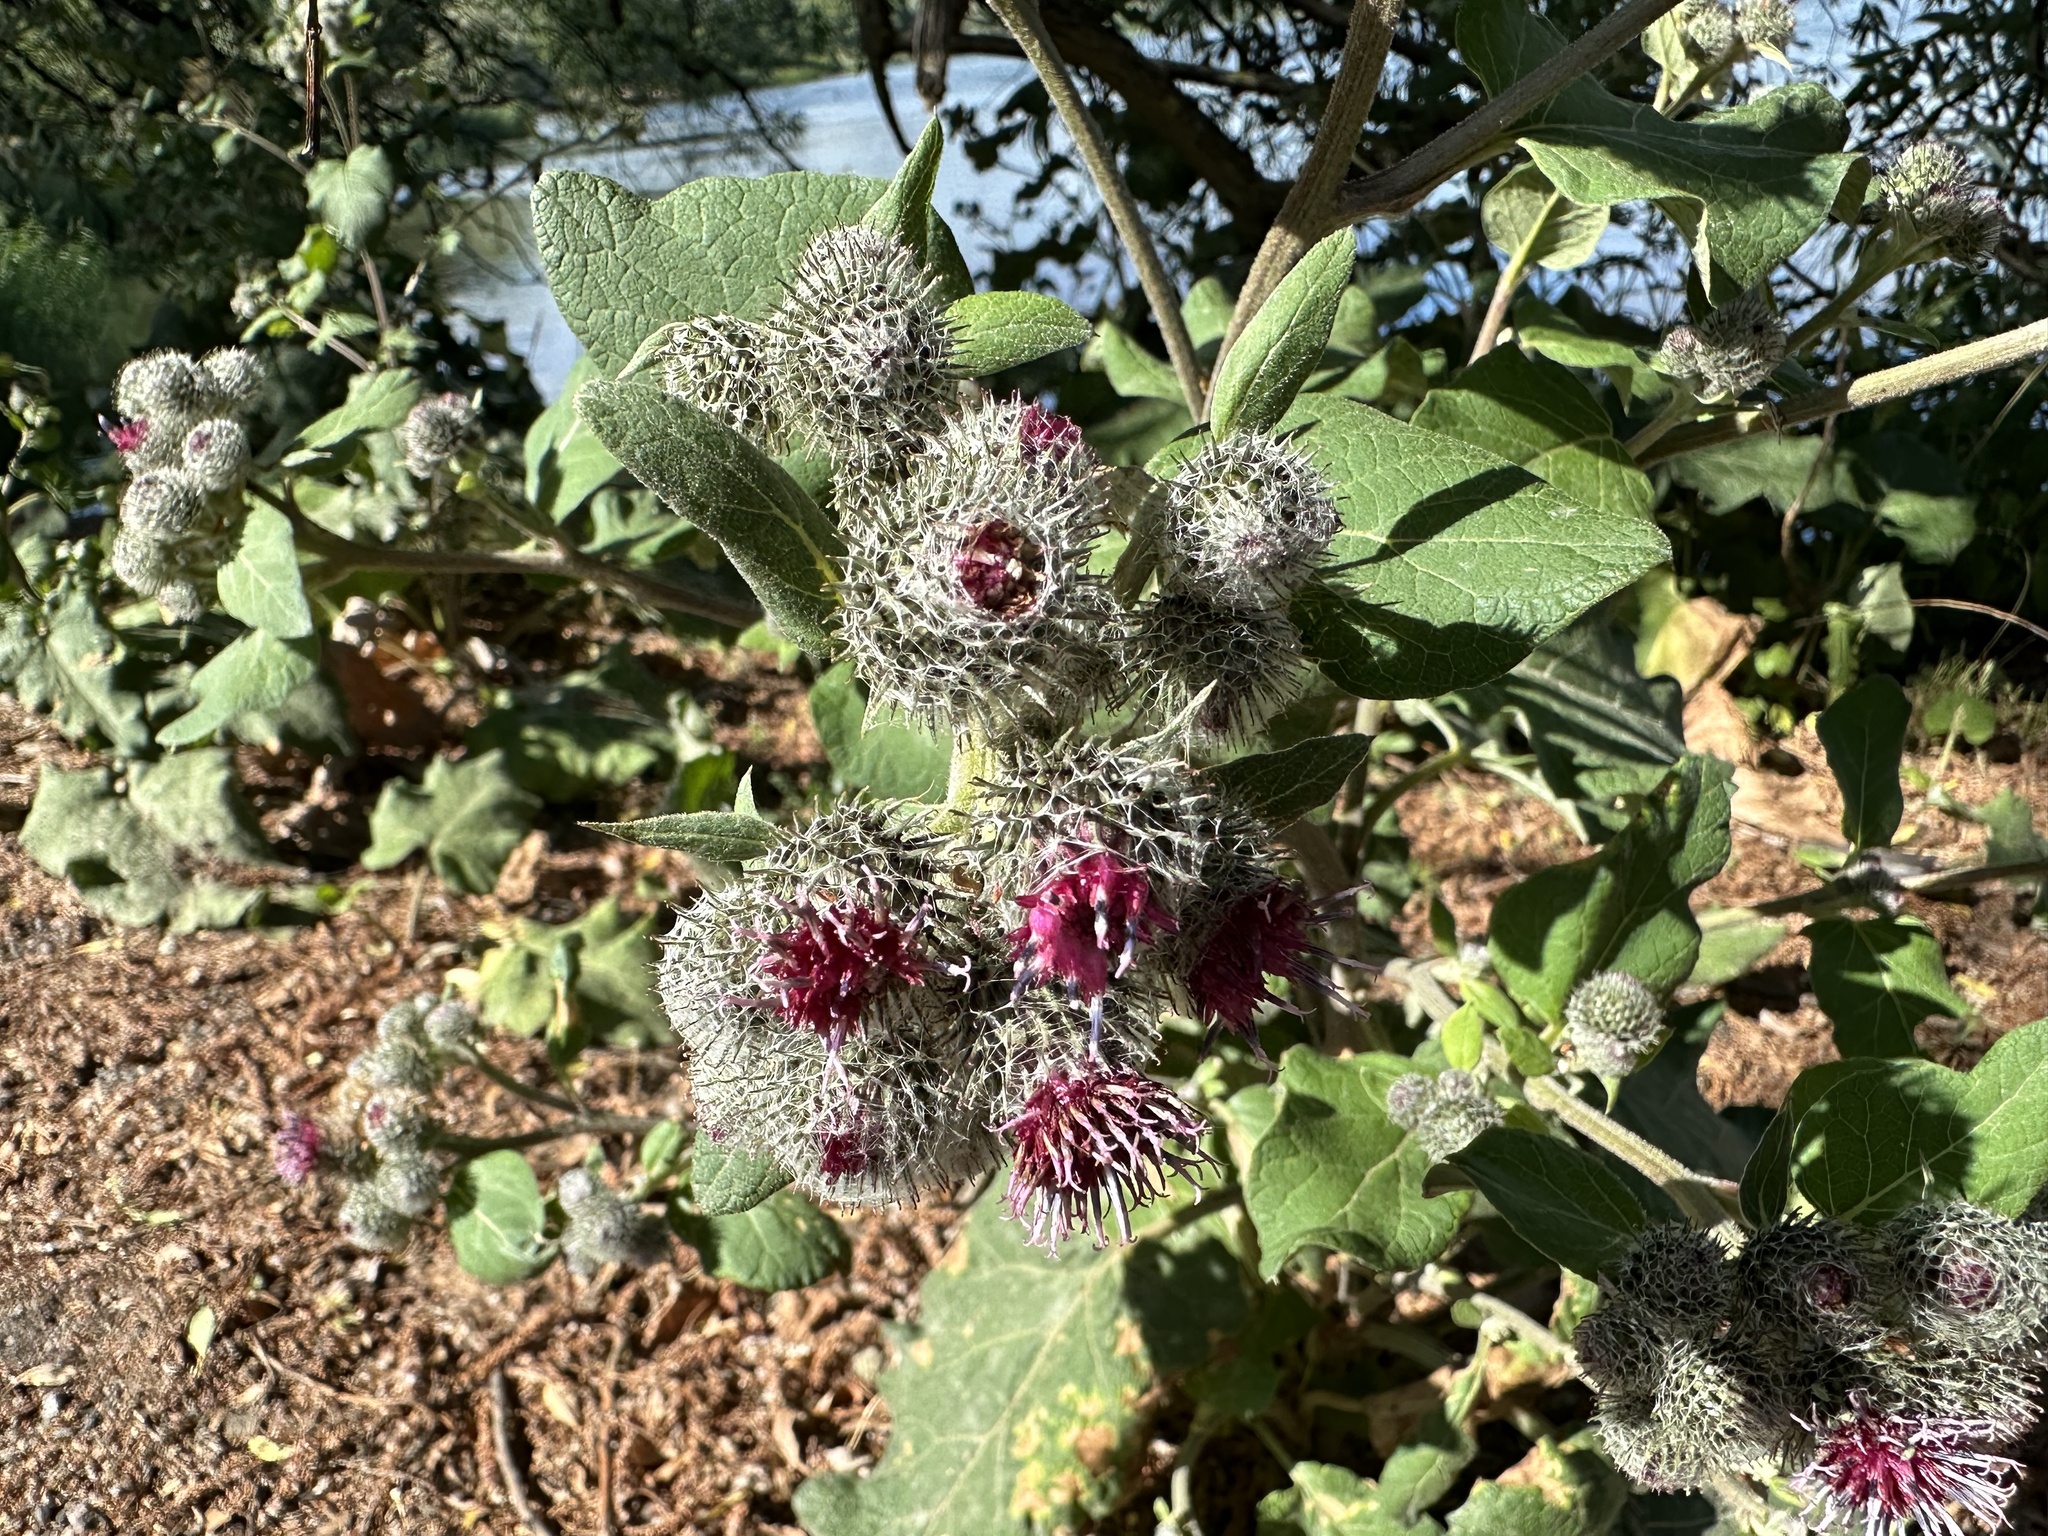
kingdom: Plantae
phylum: Tracheophyta
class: Magnoliopsida
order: Asterales
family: Asteraceae
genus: Arctium
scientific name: Arctium tomentosum
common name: Woolly burdock
